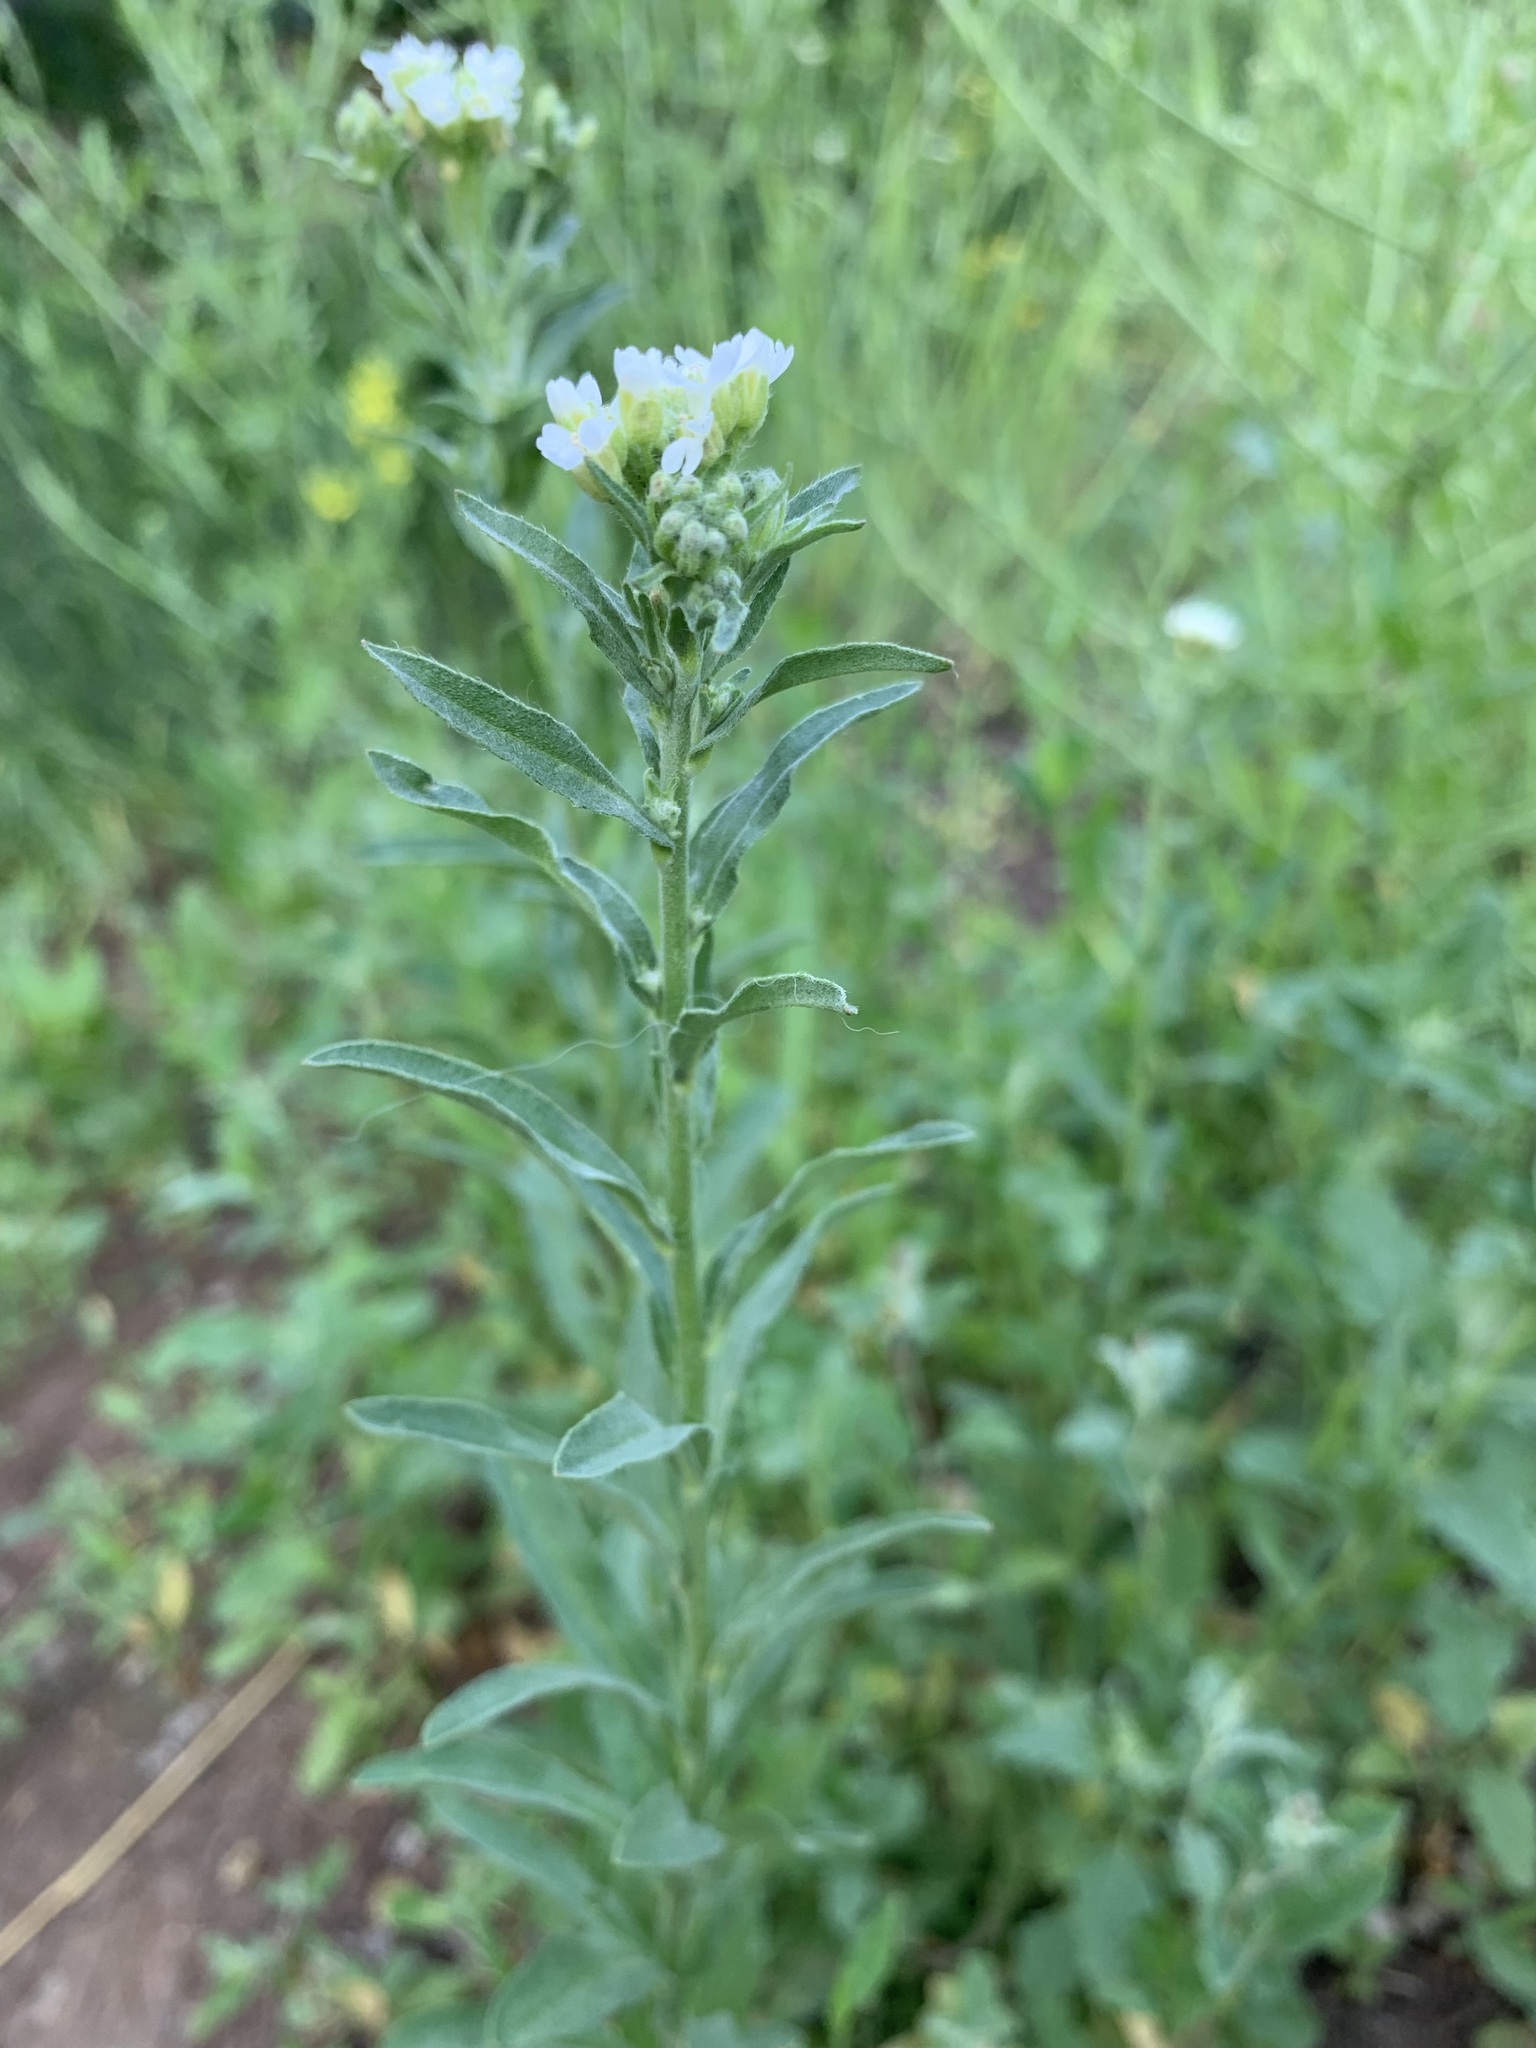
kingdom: Plantae
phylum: Tracheophyta
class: Magnoliopsida
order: Brassicales
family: Brassicaceae
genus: Berteroa
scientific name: Berteroa incana
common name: Hoary alison
